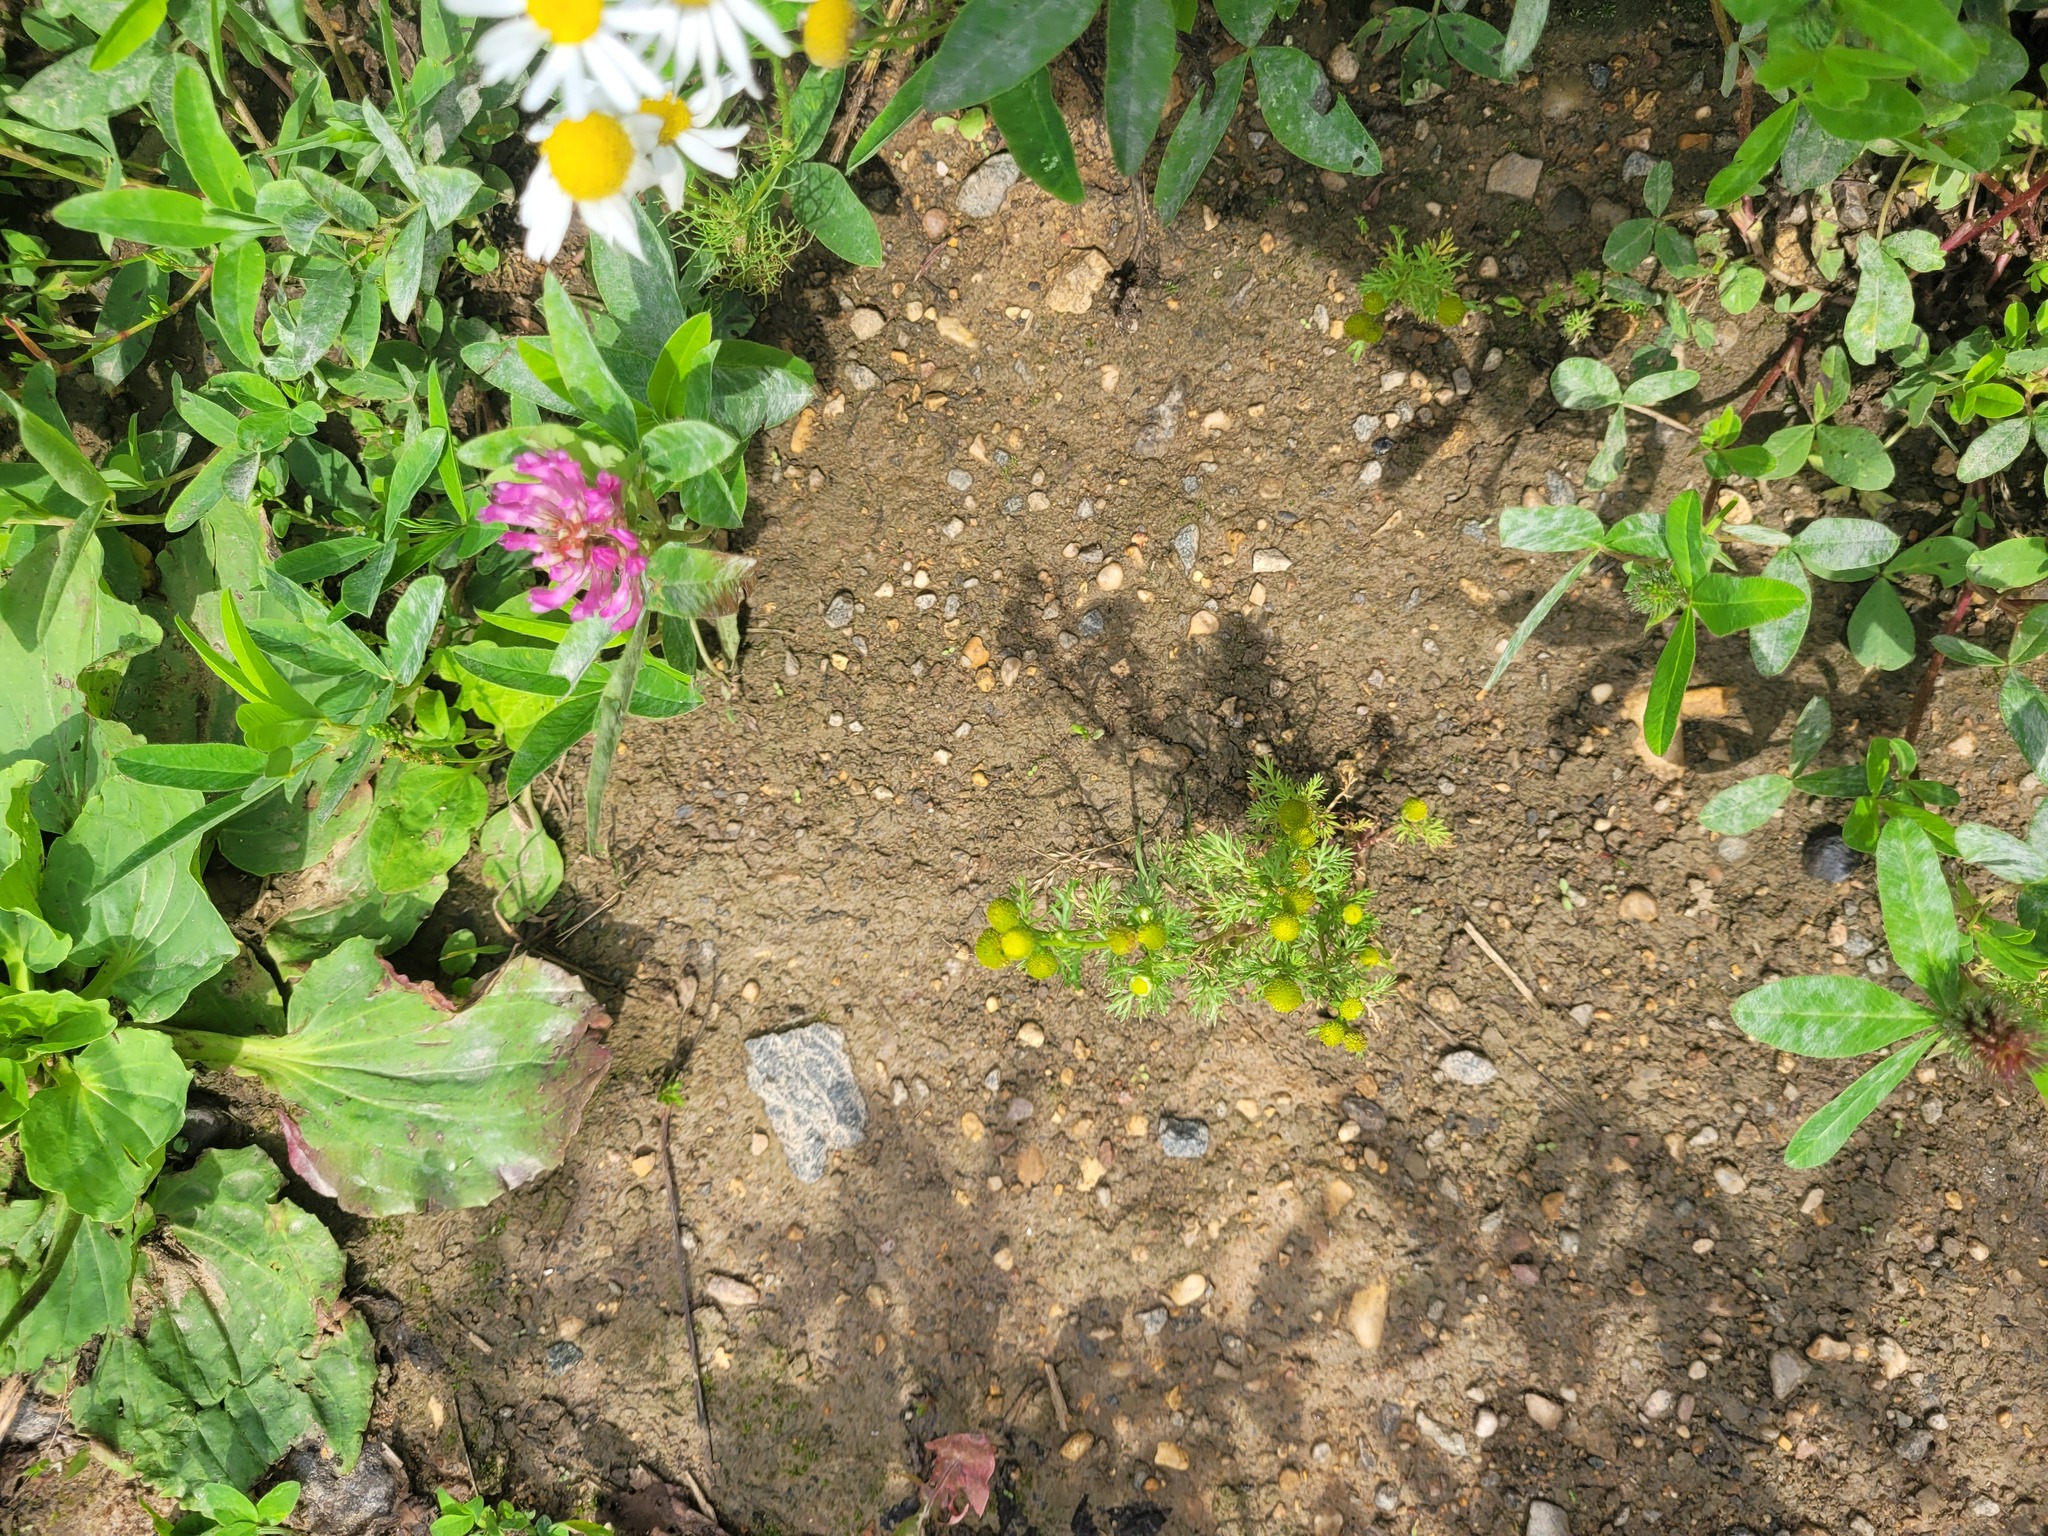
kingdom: Plantae
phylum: Tracheophyta
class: Magnoliopsida
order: Asterales
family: Asteraceae
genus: Matricaria
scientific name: Matricaria discoidea
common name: Disc mayweed
